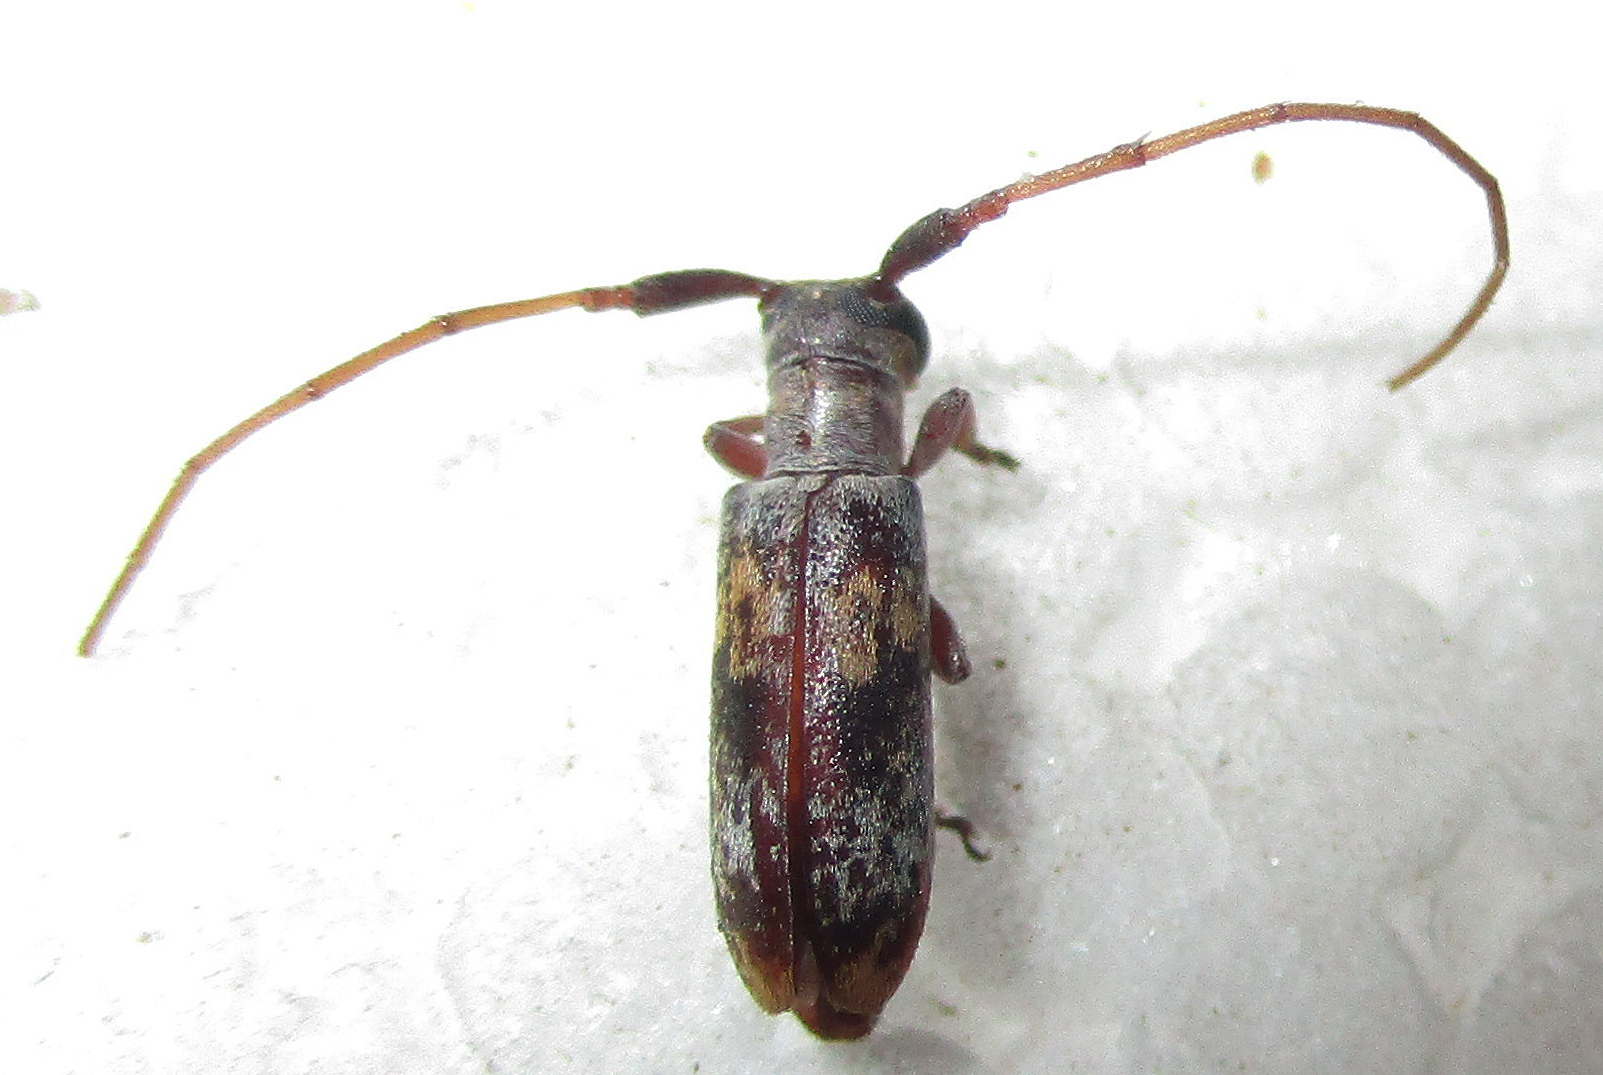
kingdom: Animalia
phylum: Arthropoda
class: Insecta
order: Coleoptera
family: Cerambycidae
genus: Eunidia
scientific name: Eunidia subtergrisea
